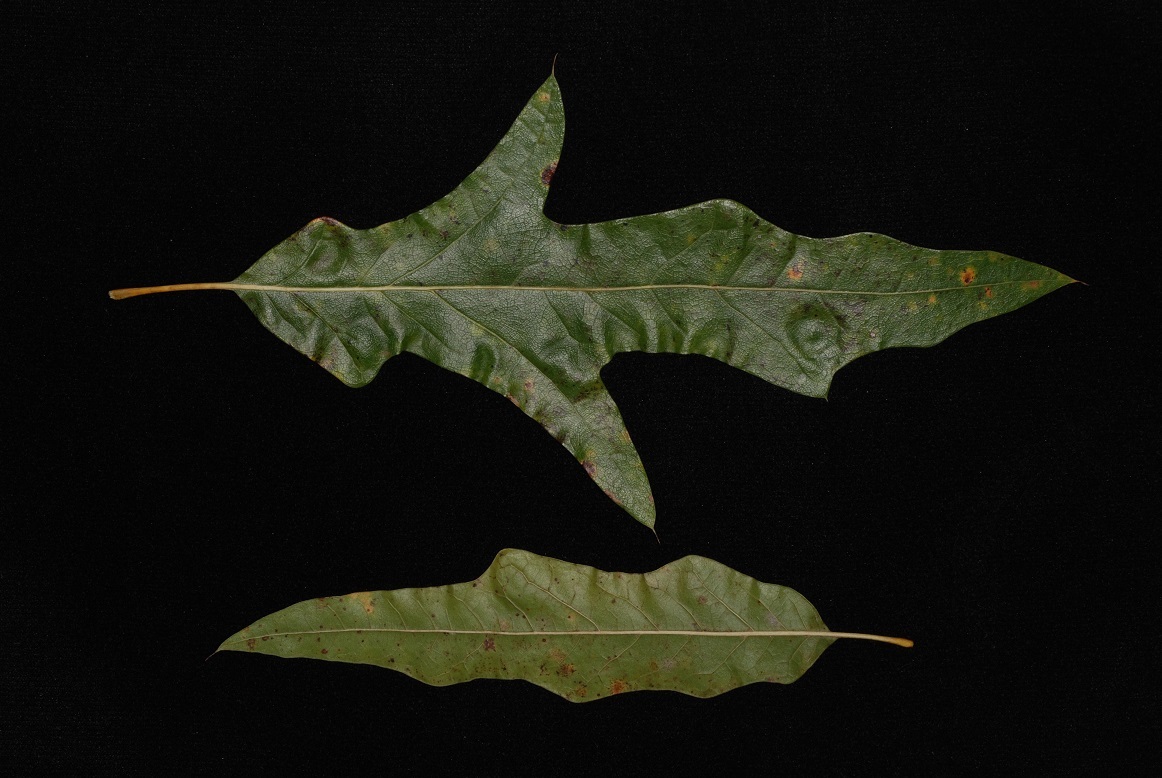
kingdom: Plantae
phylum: Tracheophyta
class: Magnoliopsida
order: Fagales
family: Fagaceae
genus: Quercus
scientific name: Quercus subfalcata
